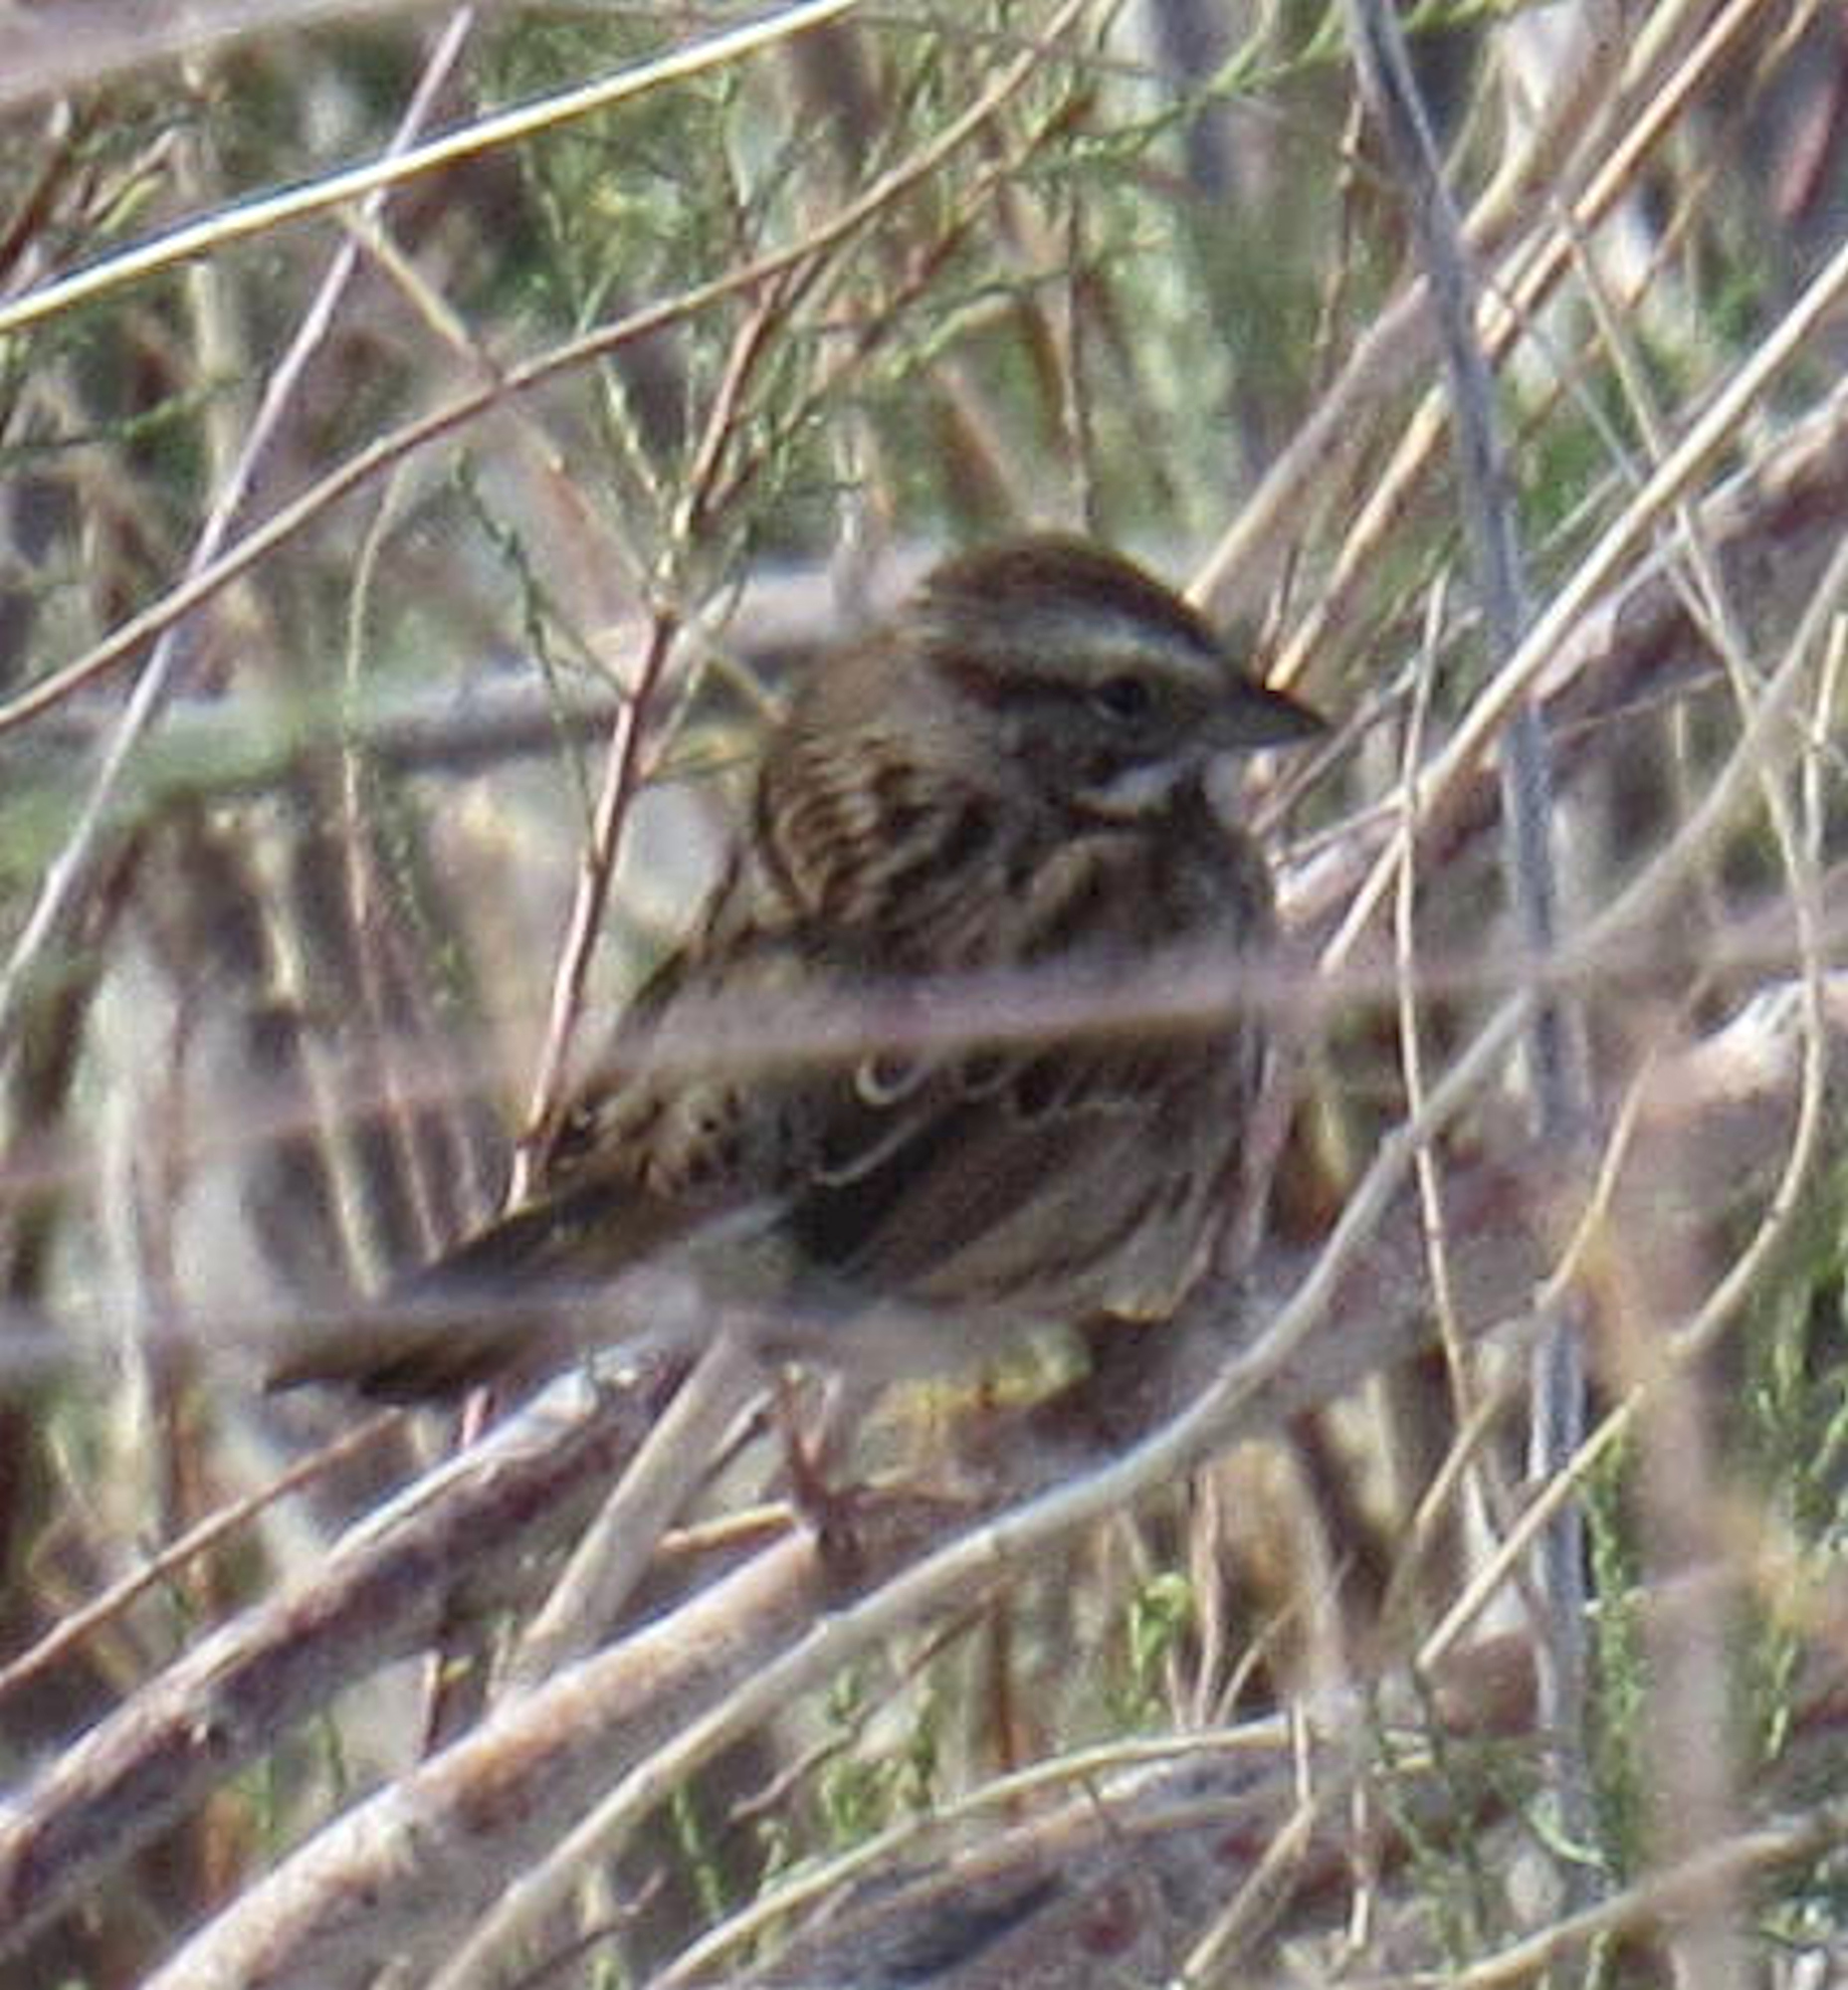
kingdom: Animalia
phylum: Chordata
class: Aves
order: Passeriformes
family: Passerellidae
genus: Melospiza
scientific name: Melospiza melodia
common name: Song sparrow
